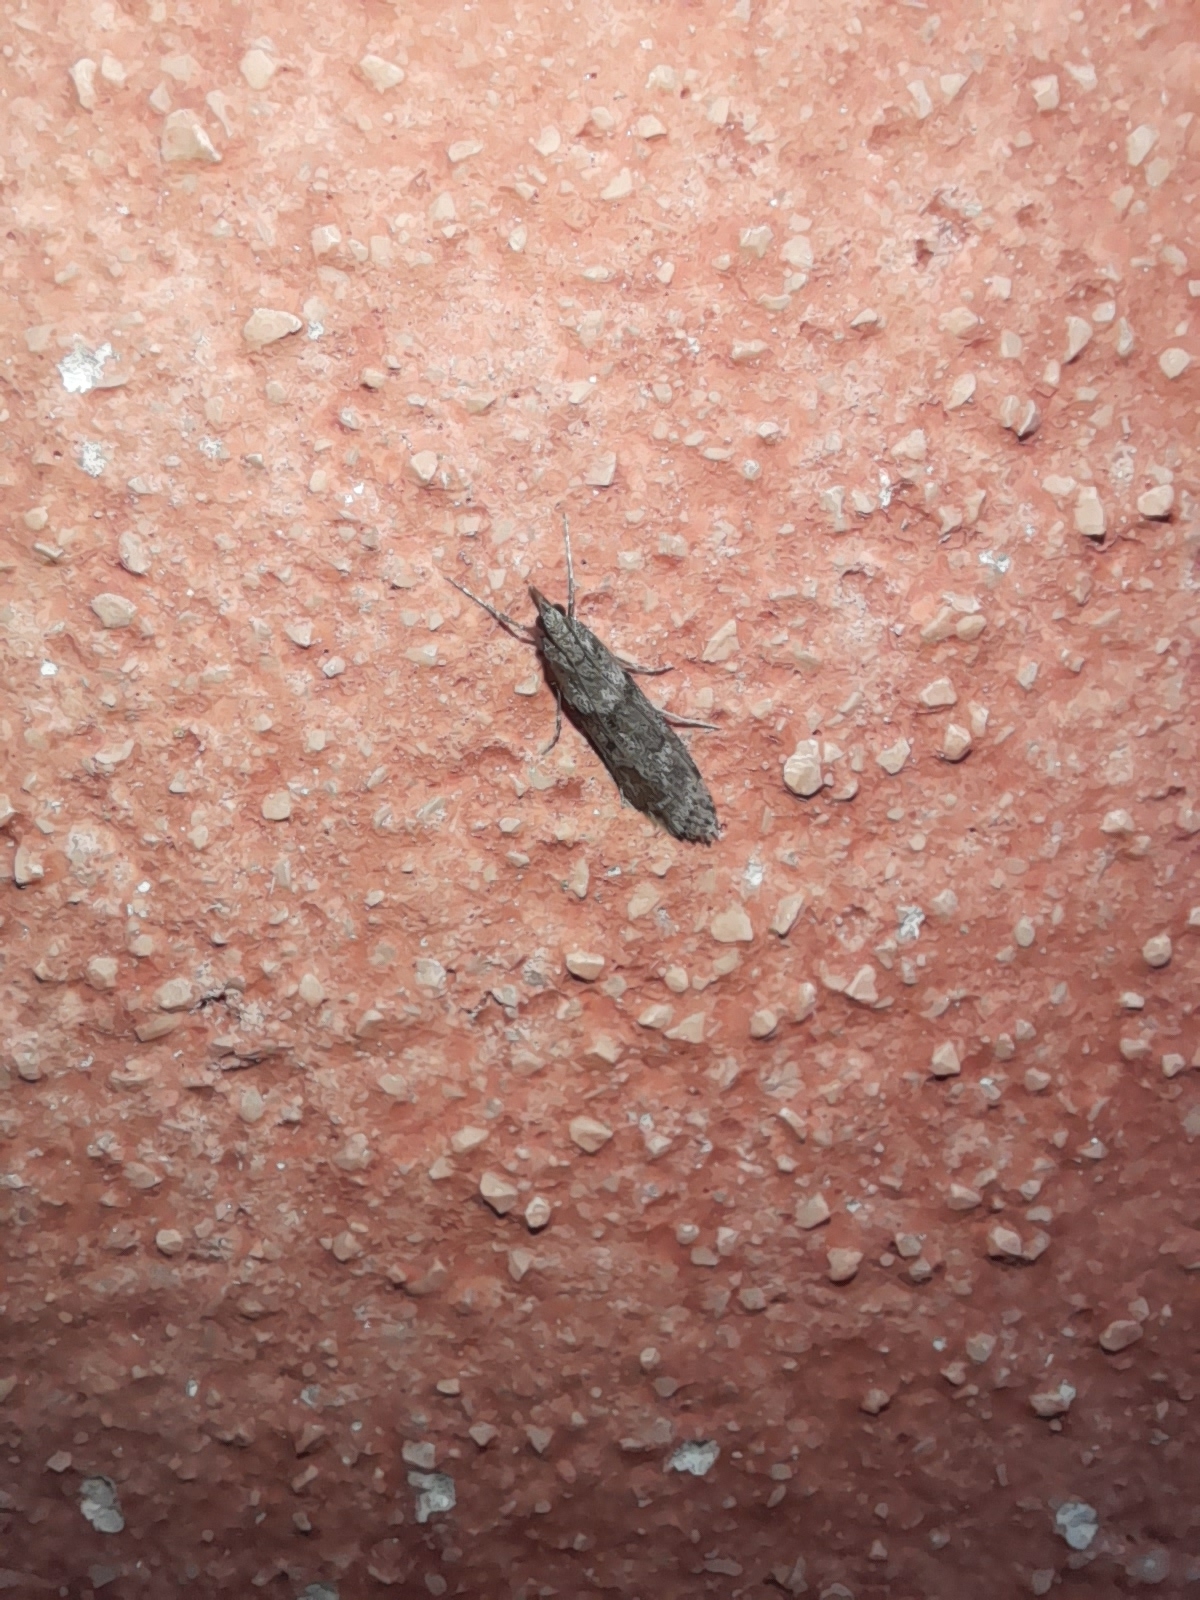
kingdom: Animalia
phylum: Arthropoda
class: Insecta
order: Lepidoptera
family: Crambidae
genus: Eudonia
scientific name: Eudonia angustea
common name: Narrow-winged grey
